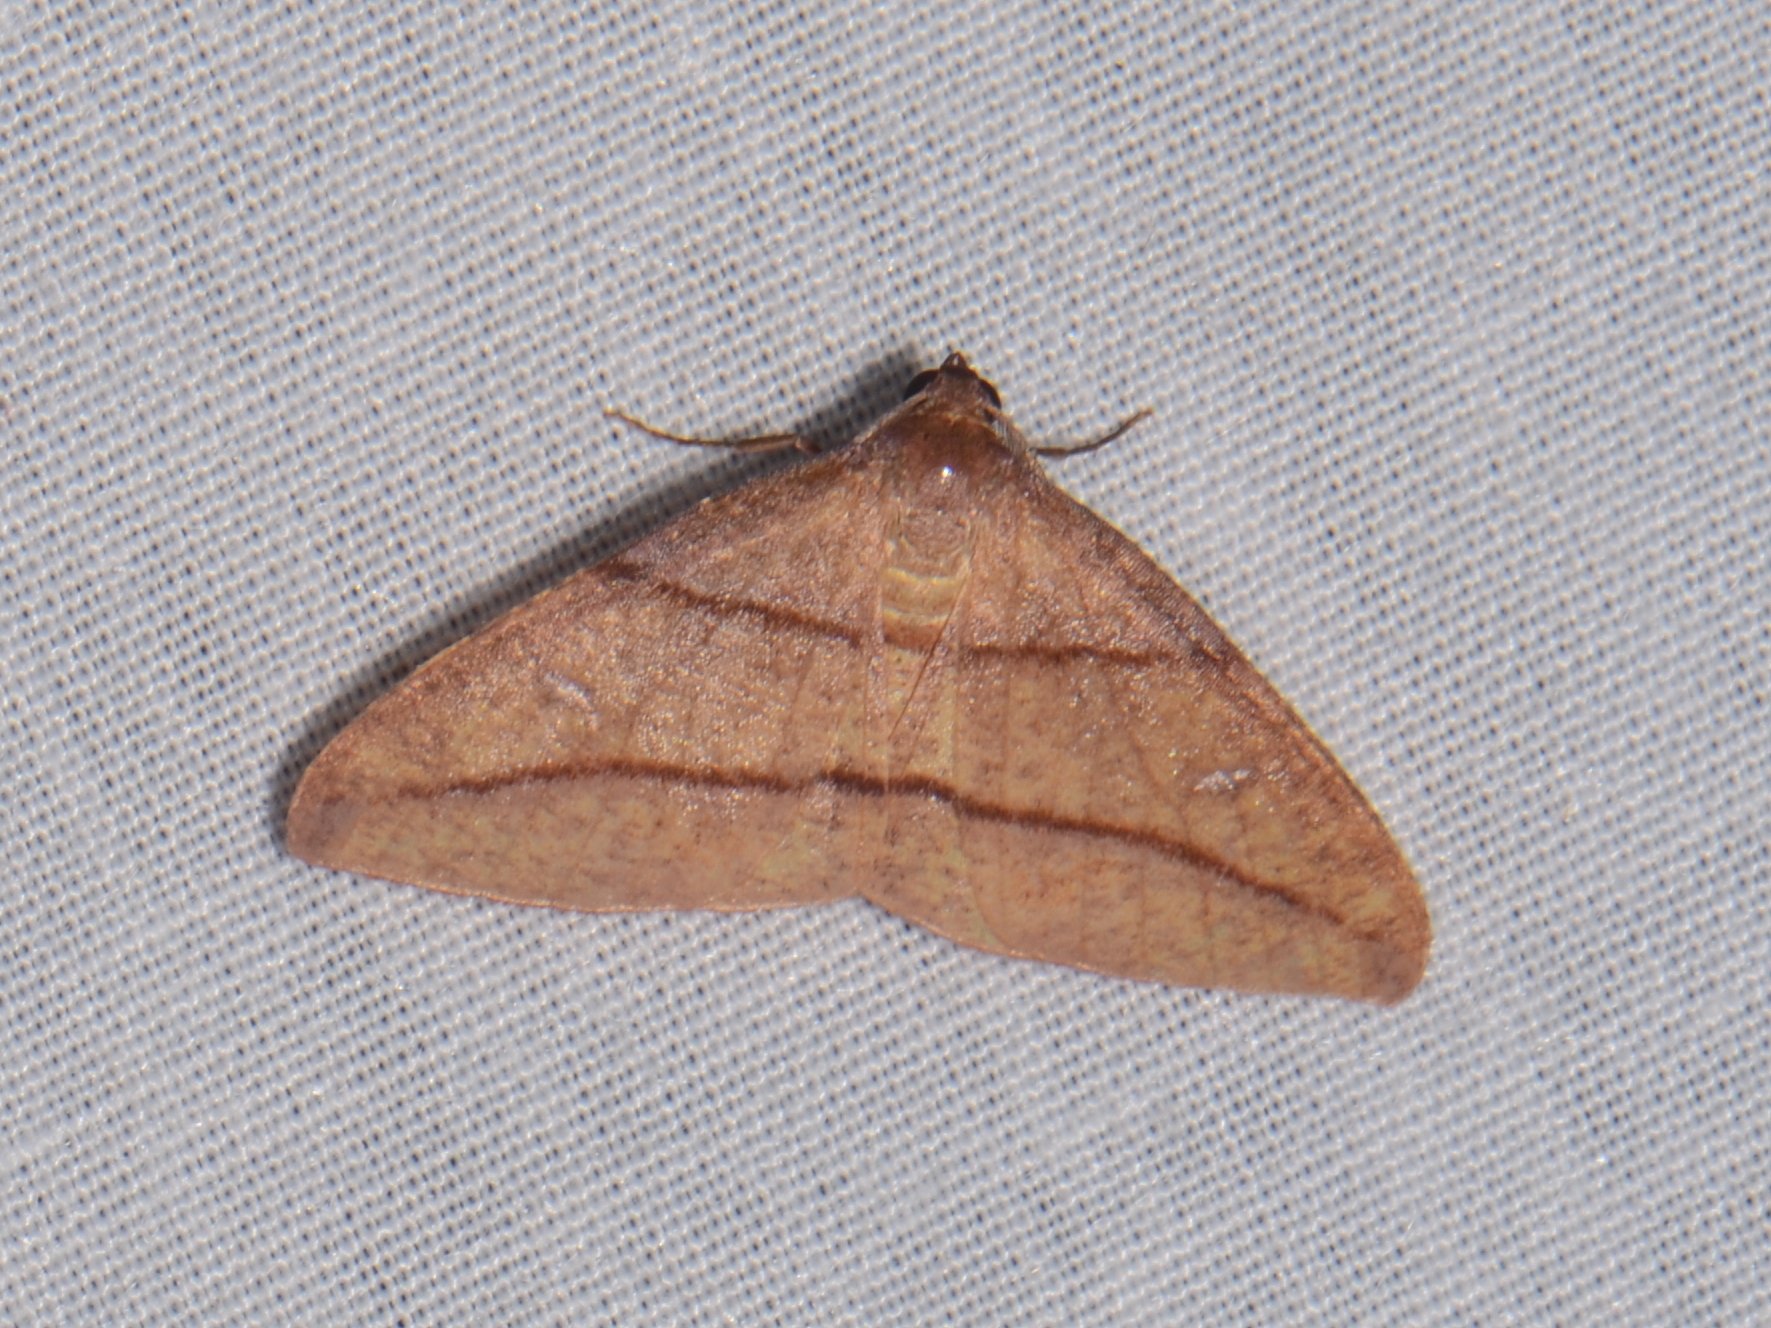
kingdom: Animalia
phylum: Arthropoda
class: Insecta
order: Lepidoptera
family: Geometridae
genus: Heterolocha
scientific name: Heterolocha declinata
